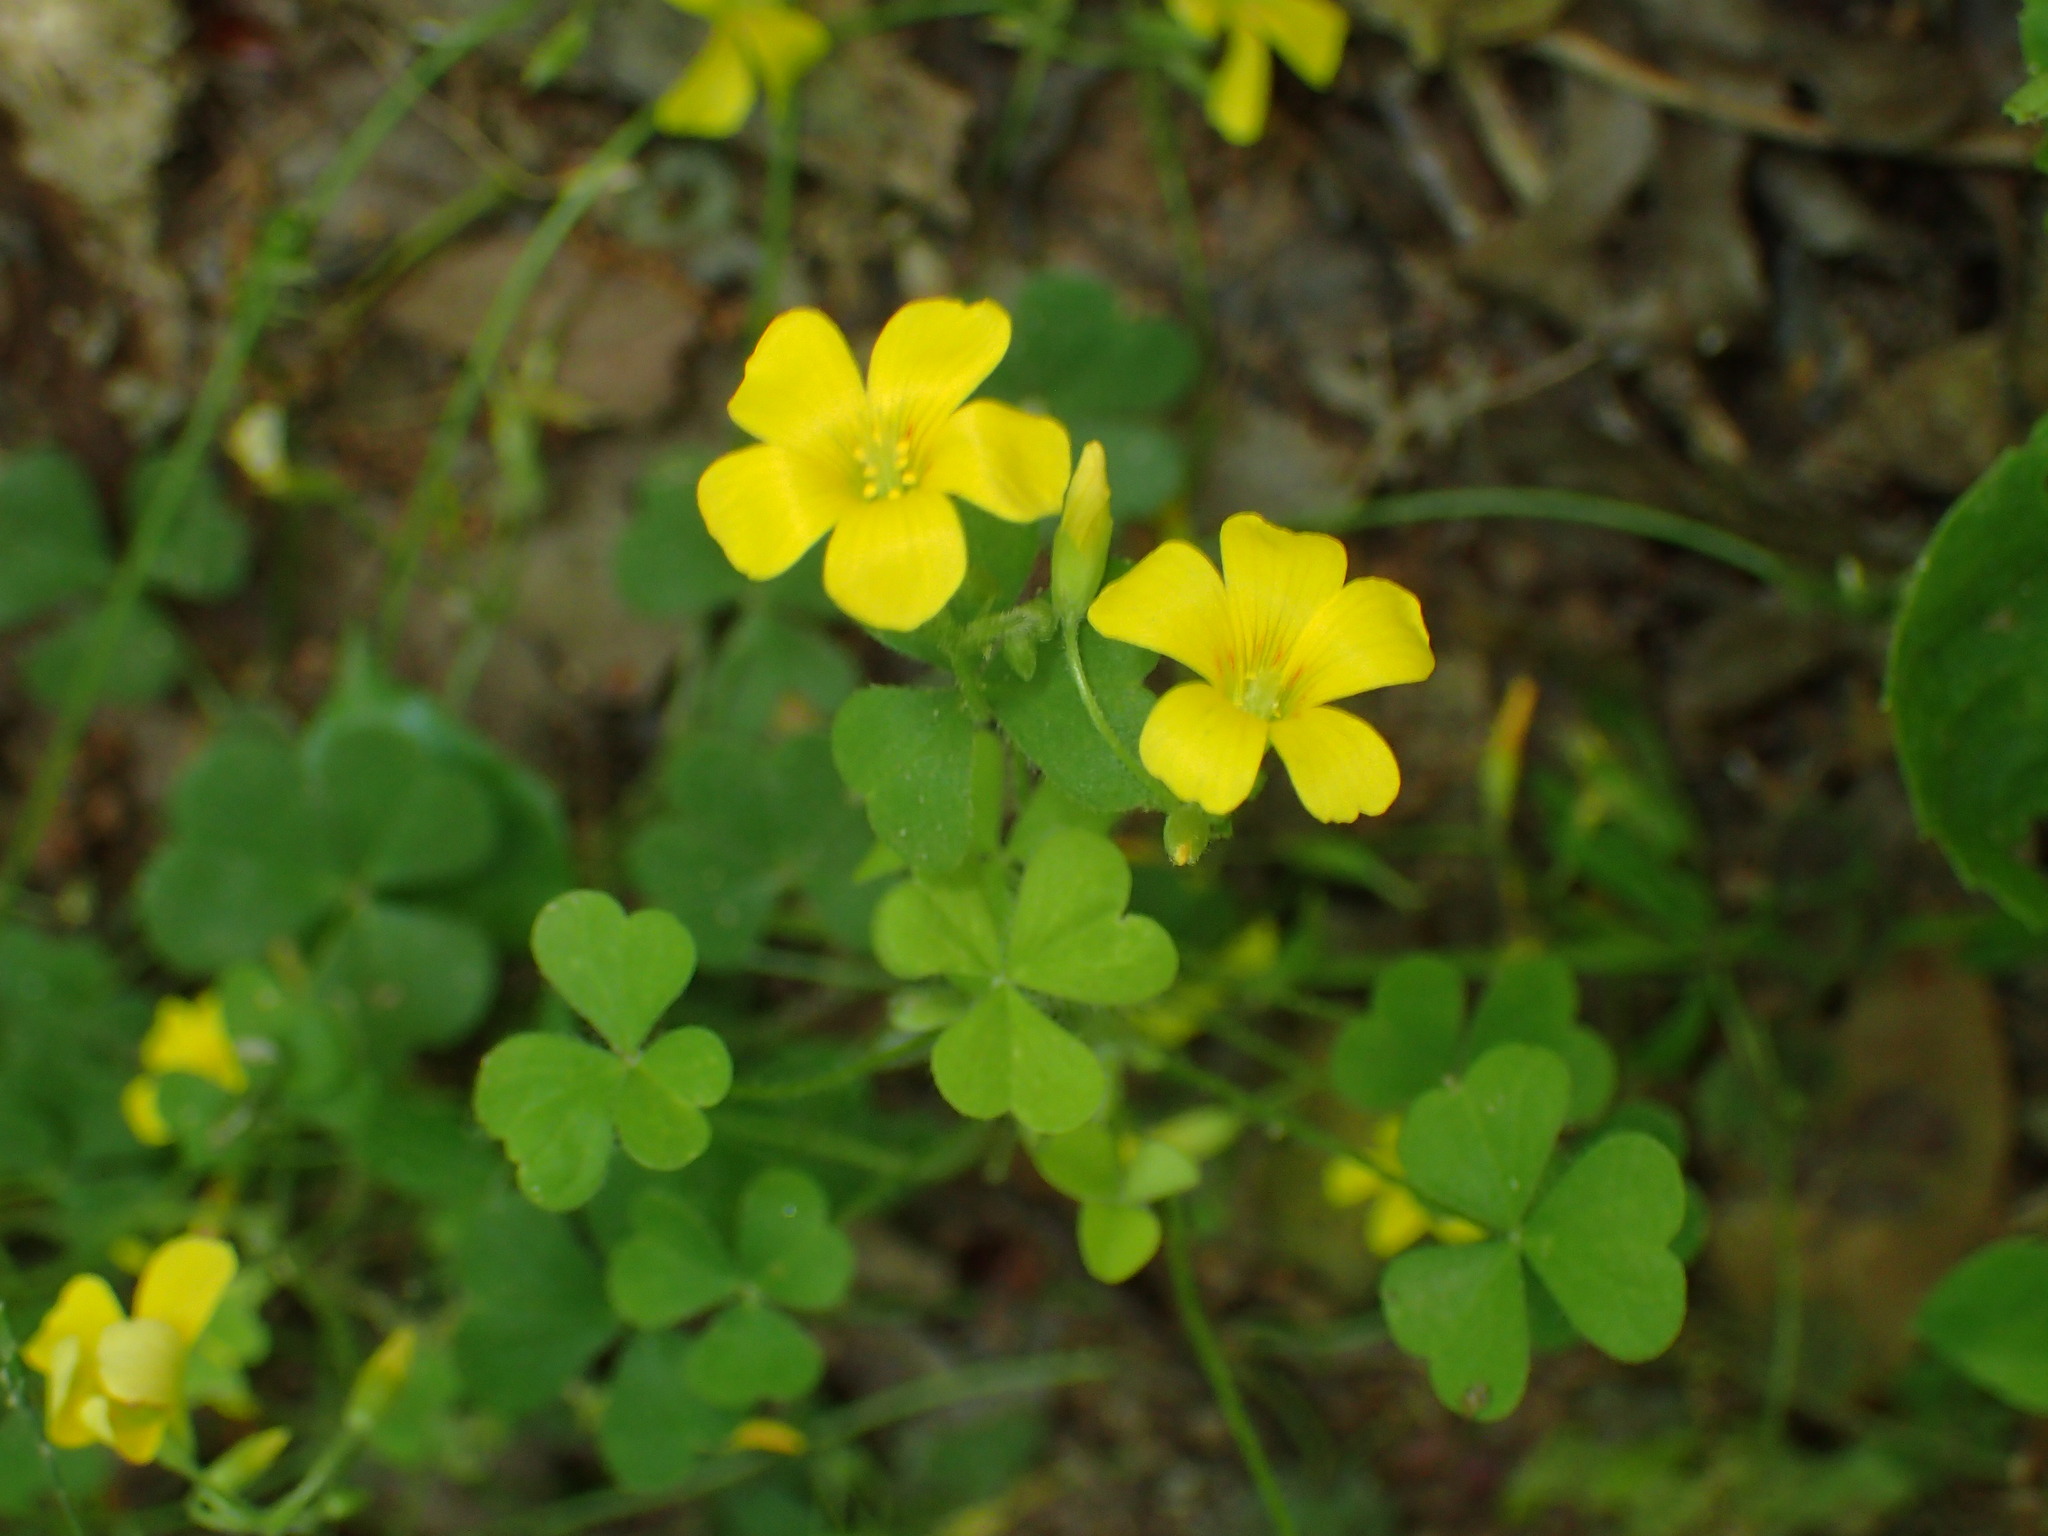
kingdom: Plantae
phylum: Tracheophyta
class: Magnoliopsida
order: Oxalidales
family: Oxalidaceae
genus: Oxalis
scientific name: Oxalis dillenii
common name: Sussex yellow-sorrel
